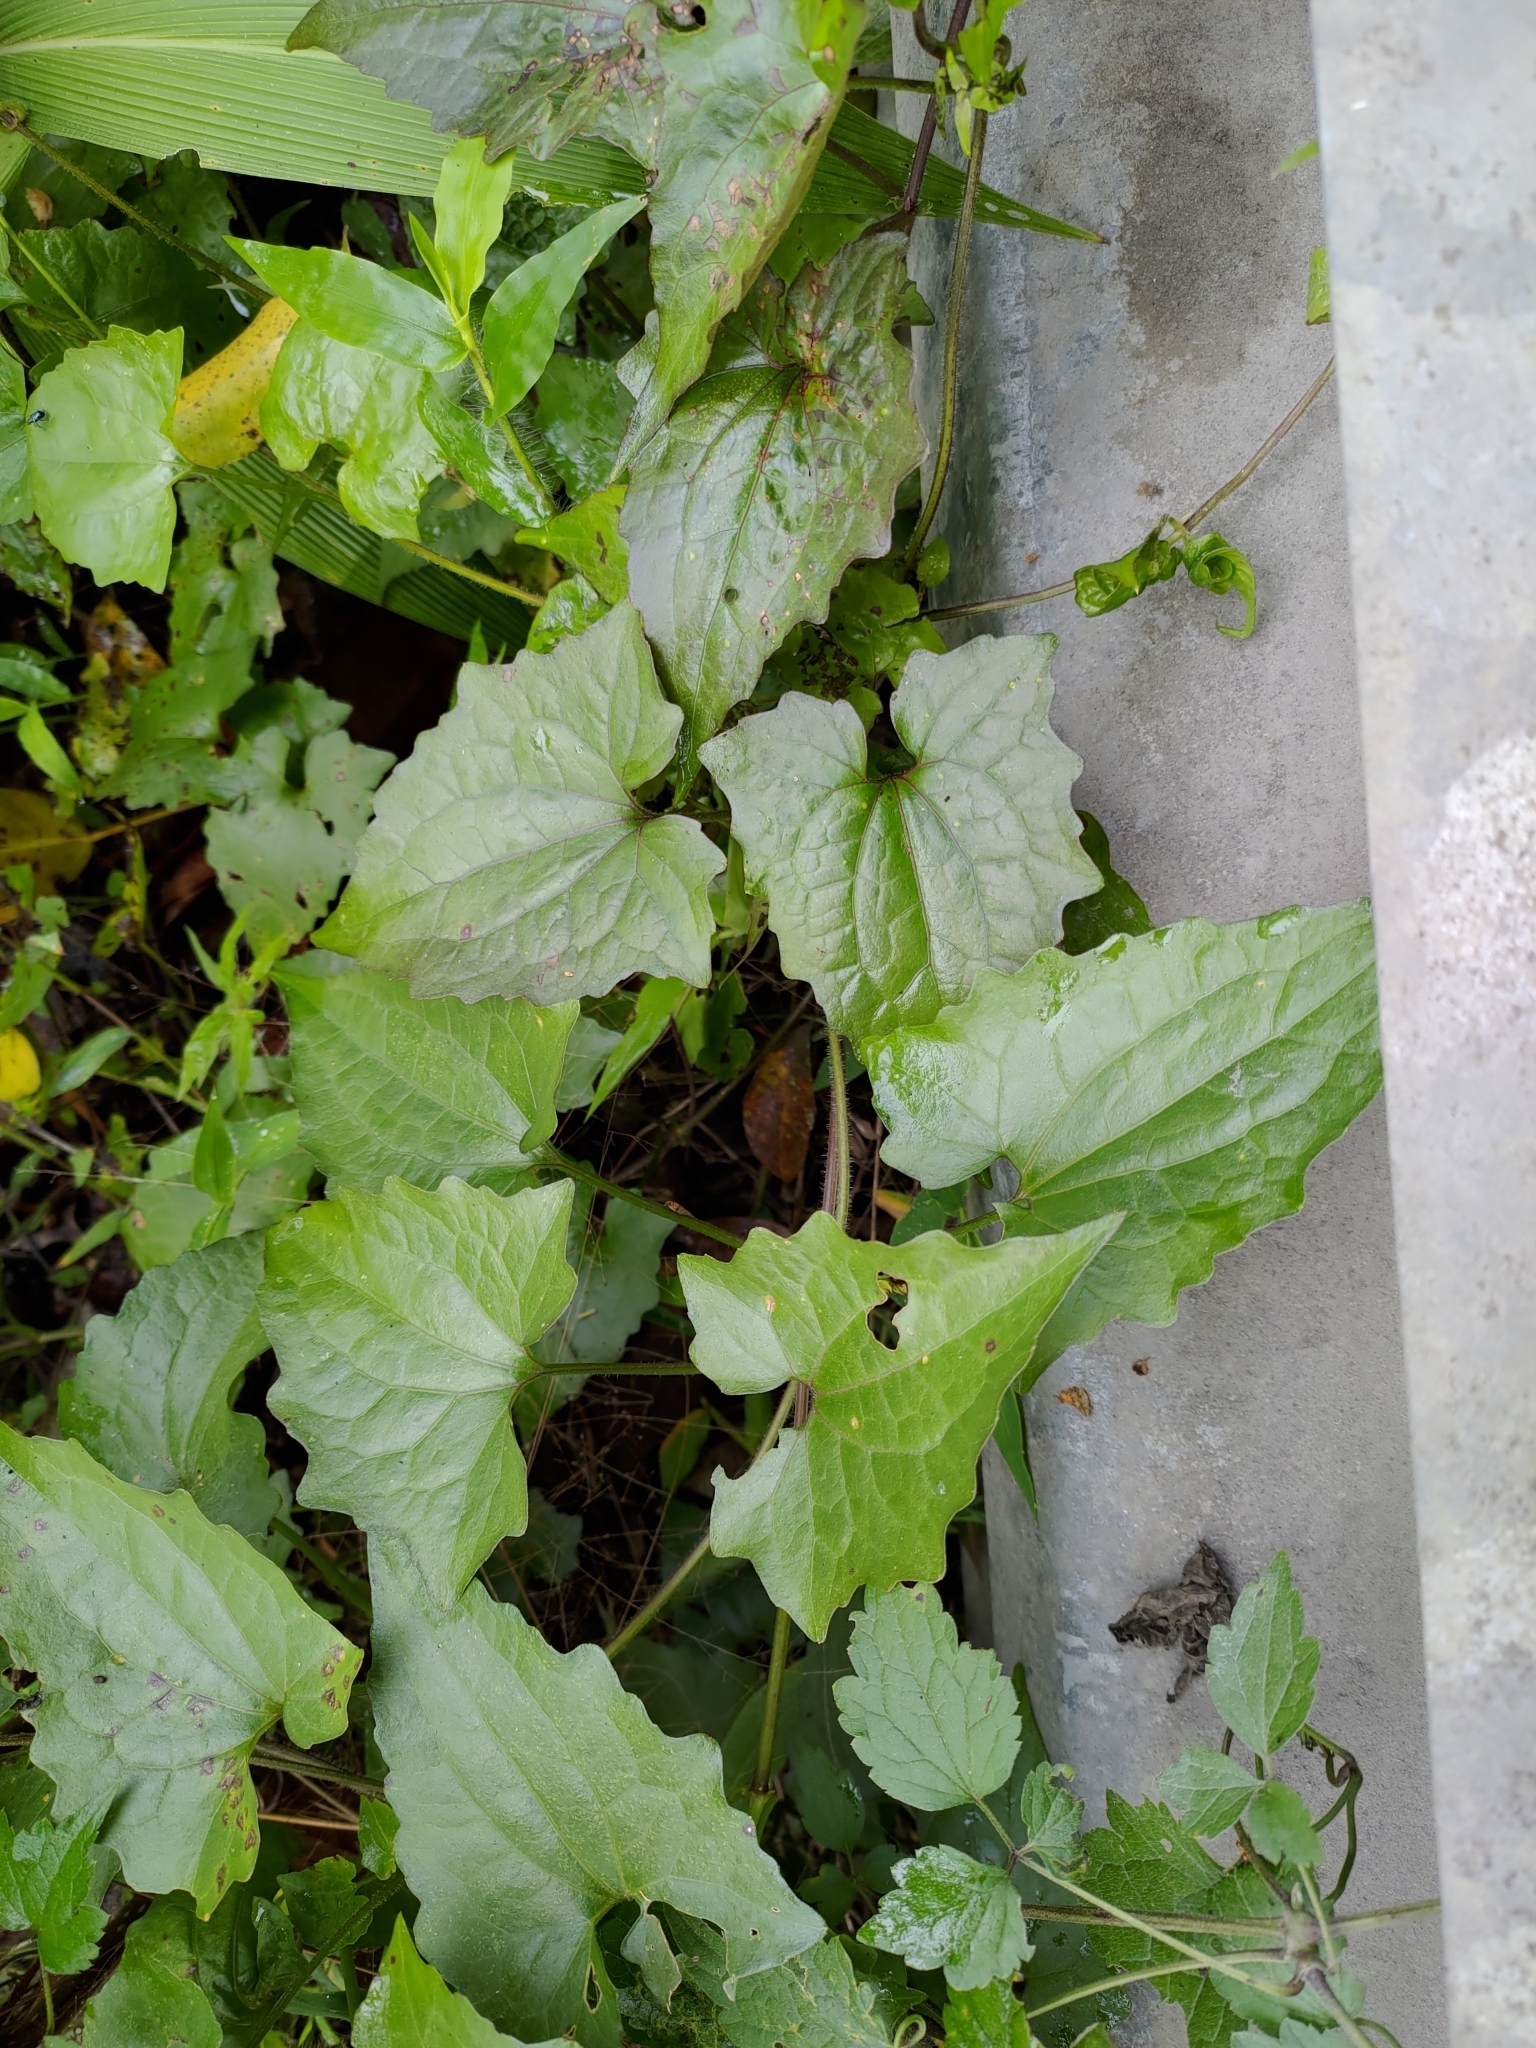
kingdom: Plantae
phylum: Tracheophyta
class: Magnoliopsida
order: Asterales
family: Asteraceae
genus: Mikania
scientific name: Mikania micrantha
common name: Mile-a-minute
